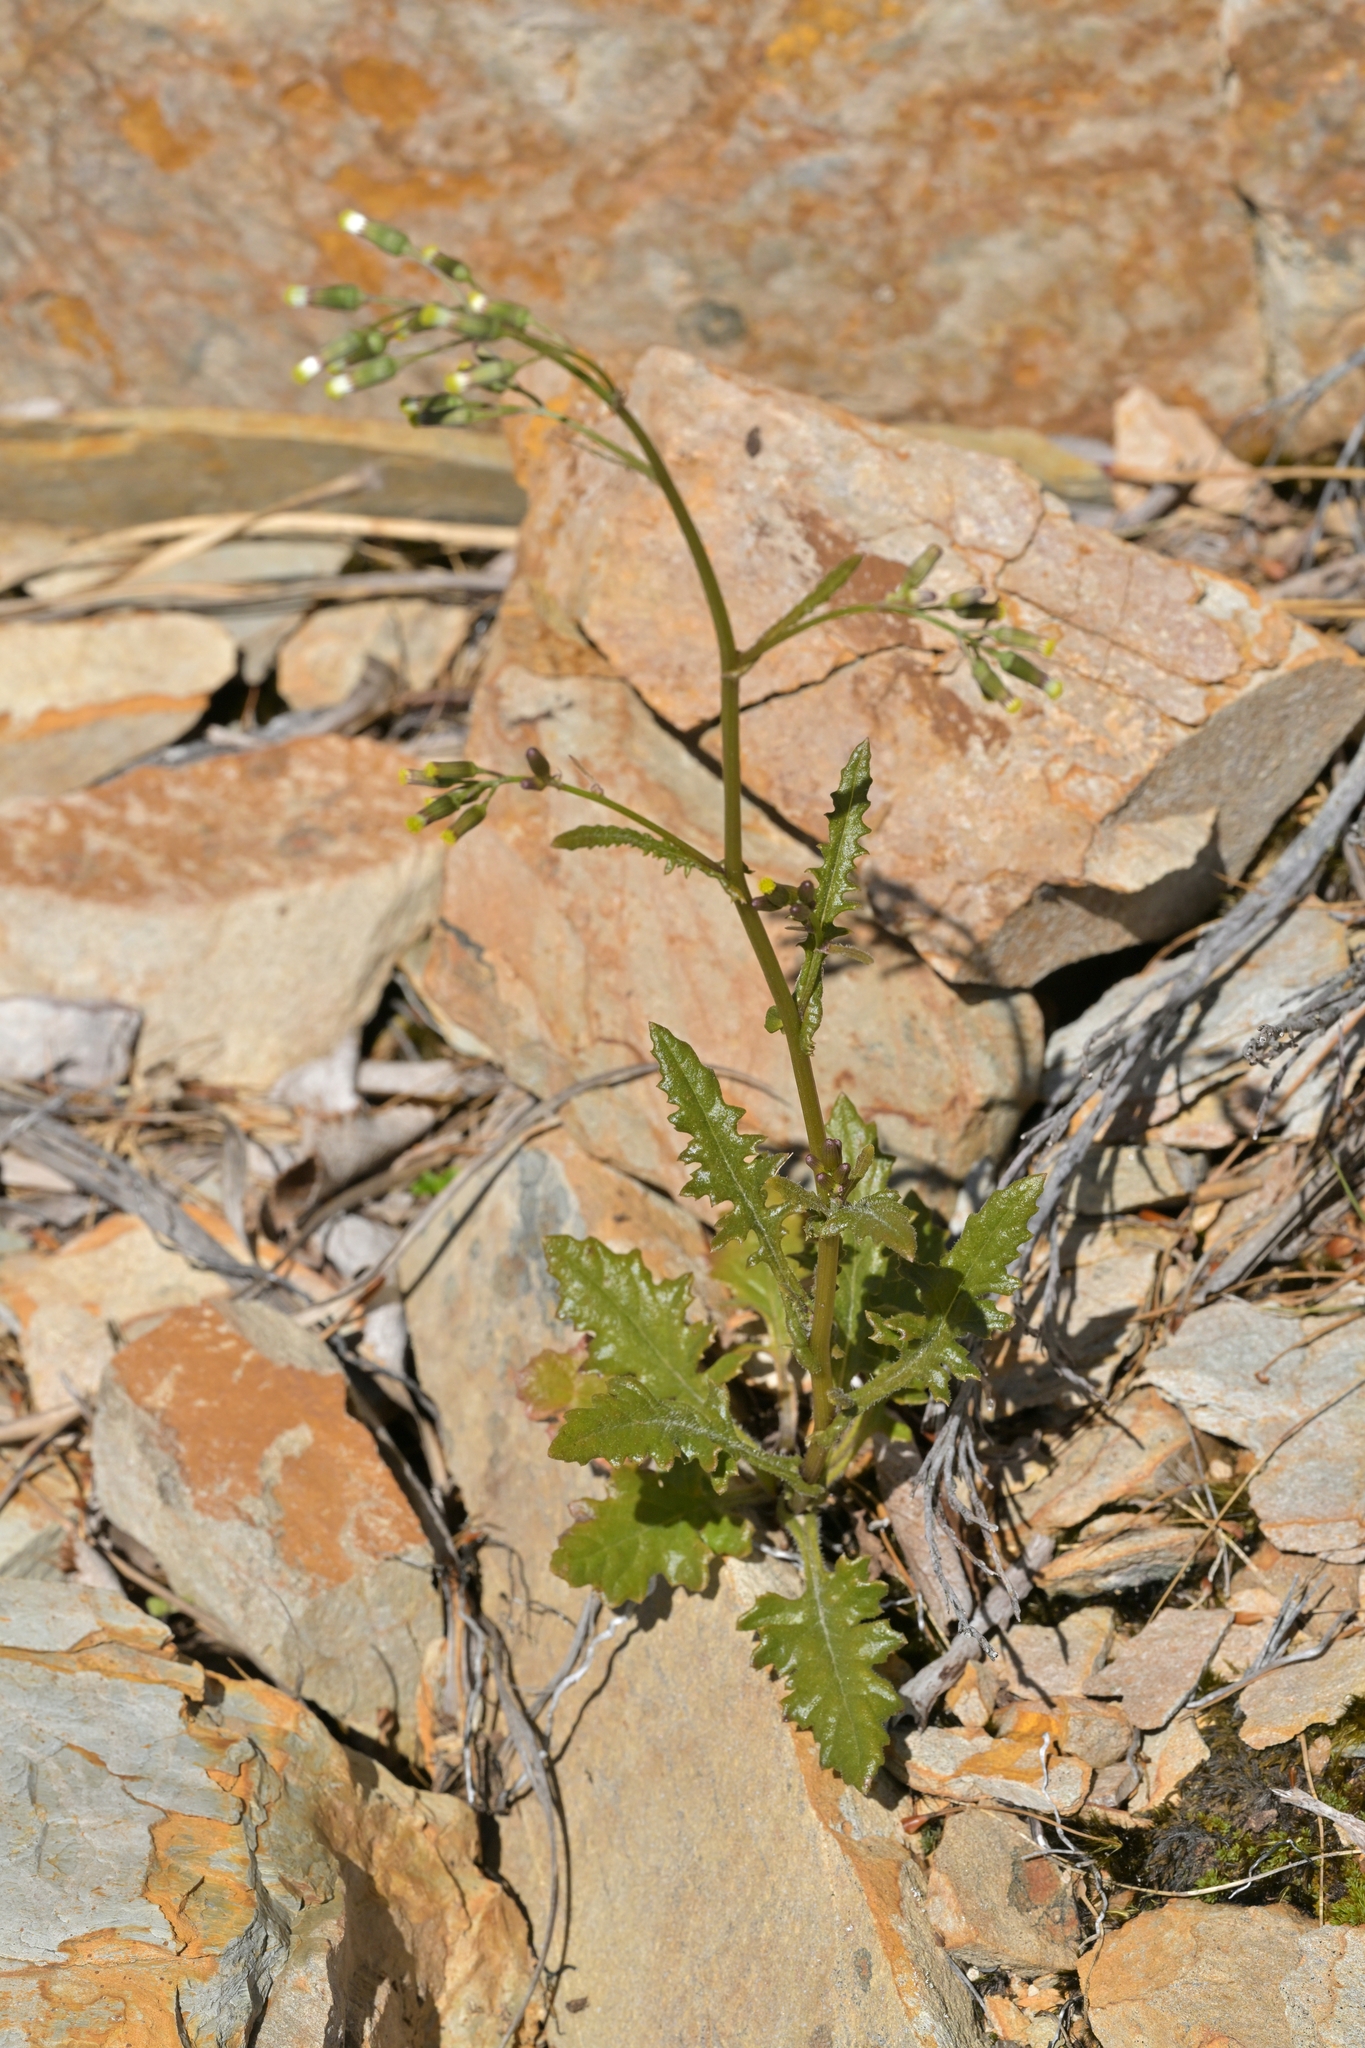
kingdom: Plantae
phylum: Tracheophyta
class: Magnoliopsida
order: Asterales
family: Asteraceae
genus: Senecio
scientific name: Senecio wairauensis
